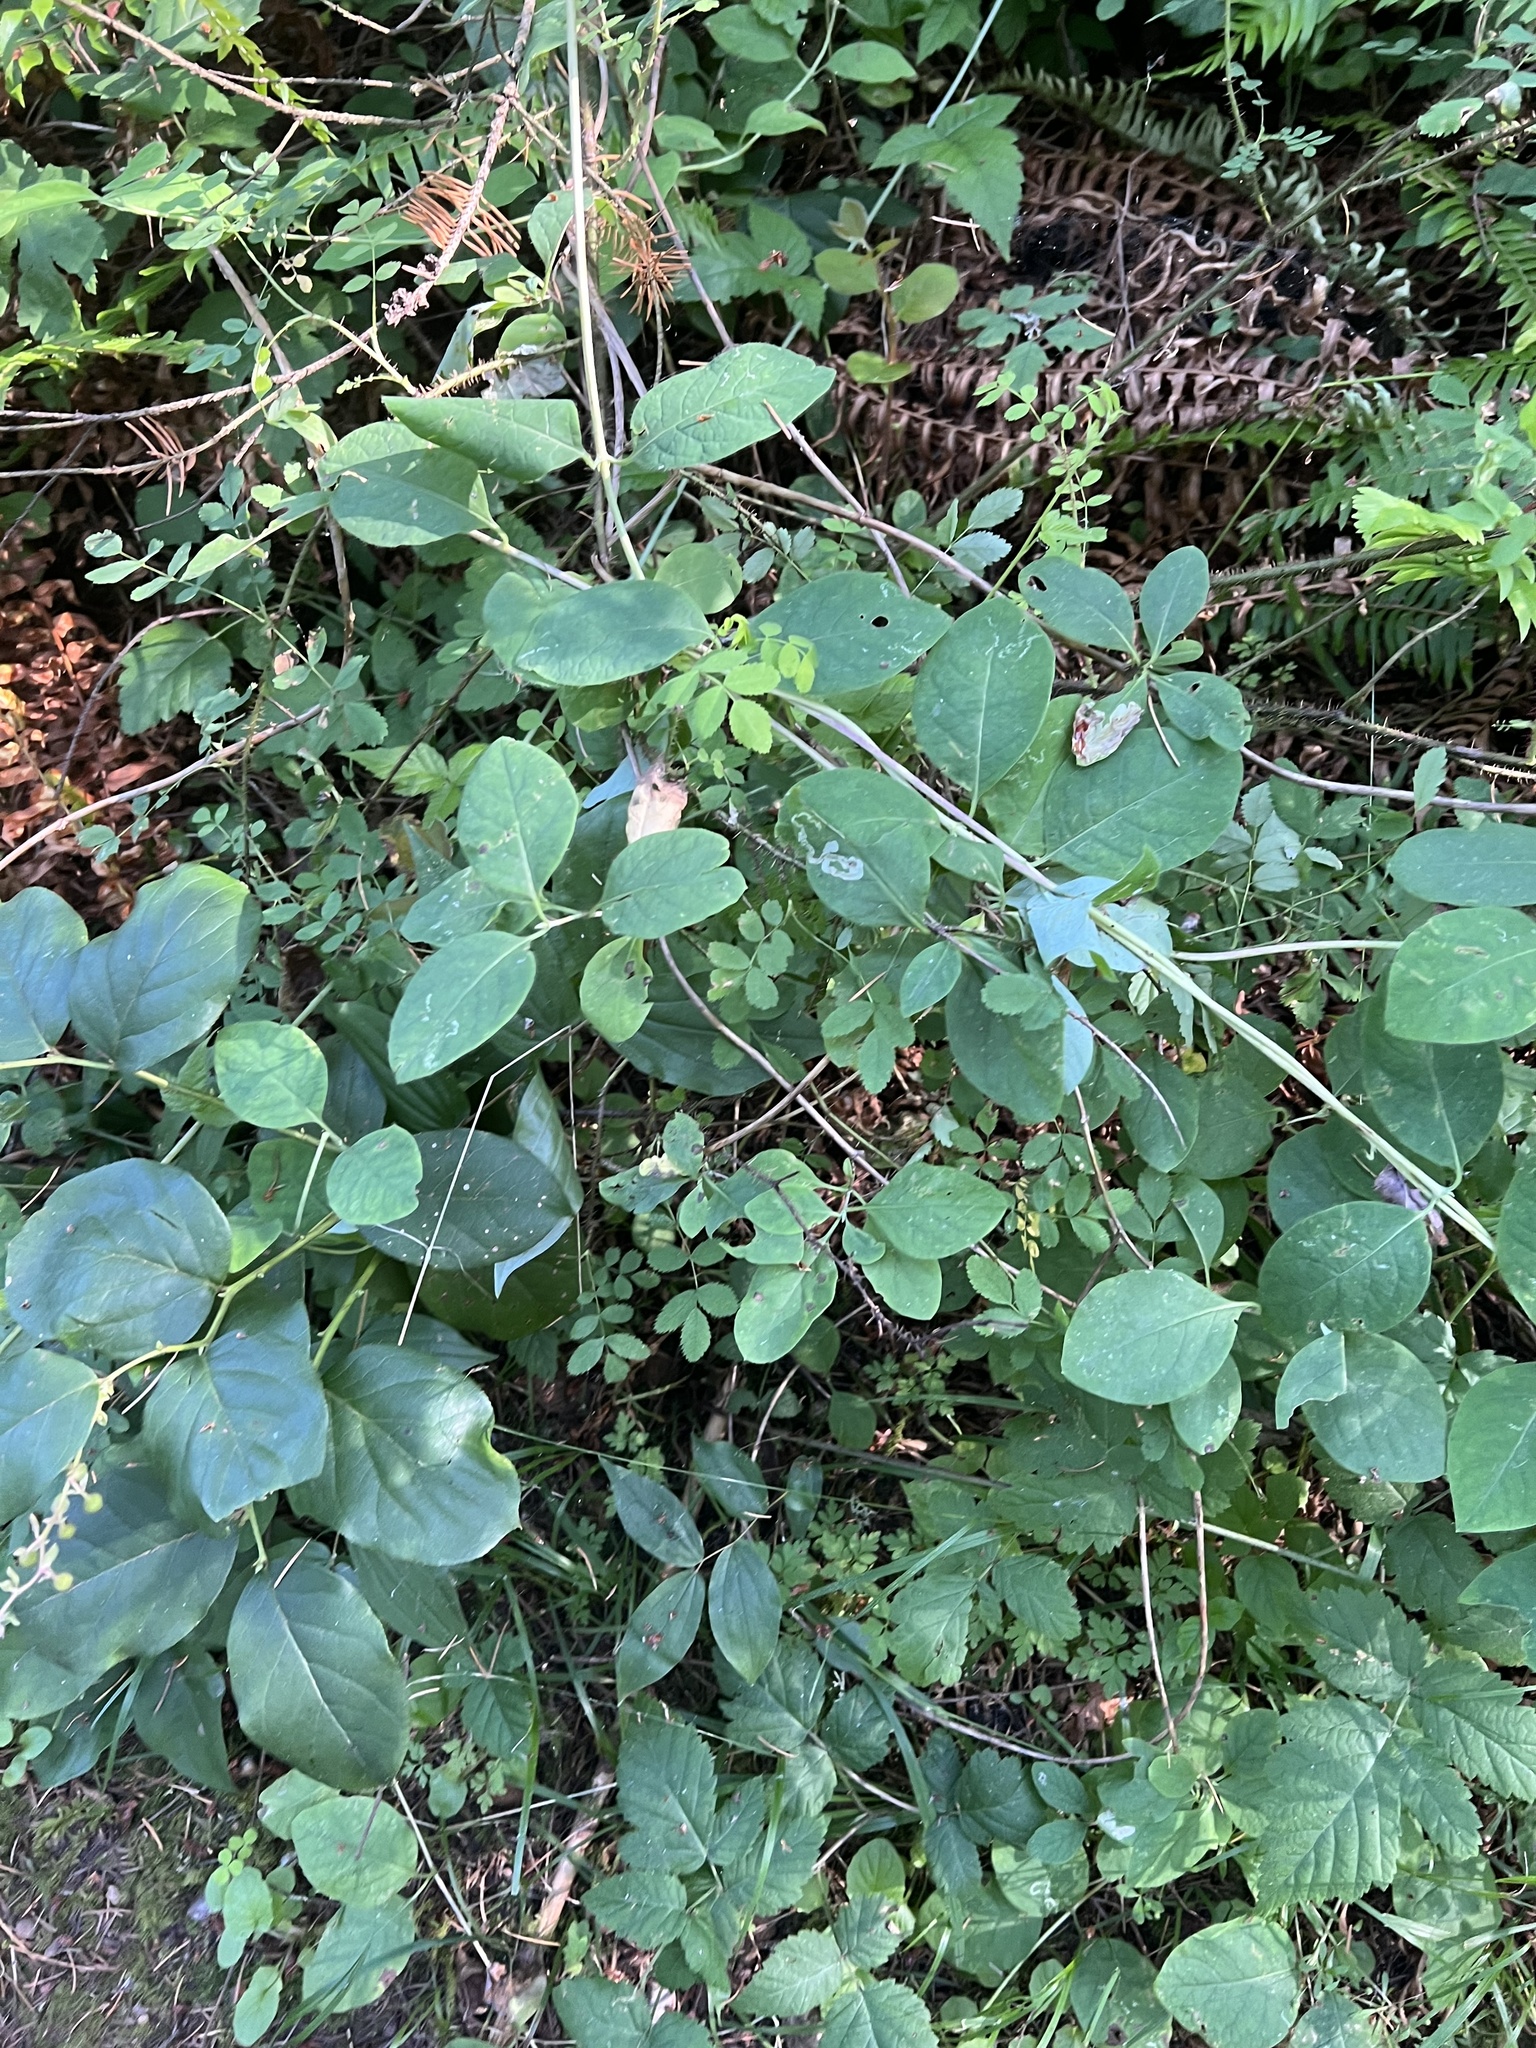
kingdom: Plantae
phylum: Tracheophyta
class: Magnoliopsida
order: Dipsacales
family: Caprifoliaceae
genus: Lonicera
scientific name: Lonicera ciliosa
